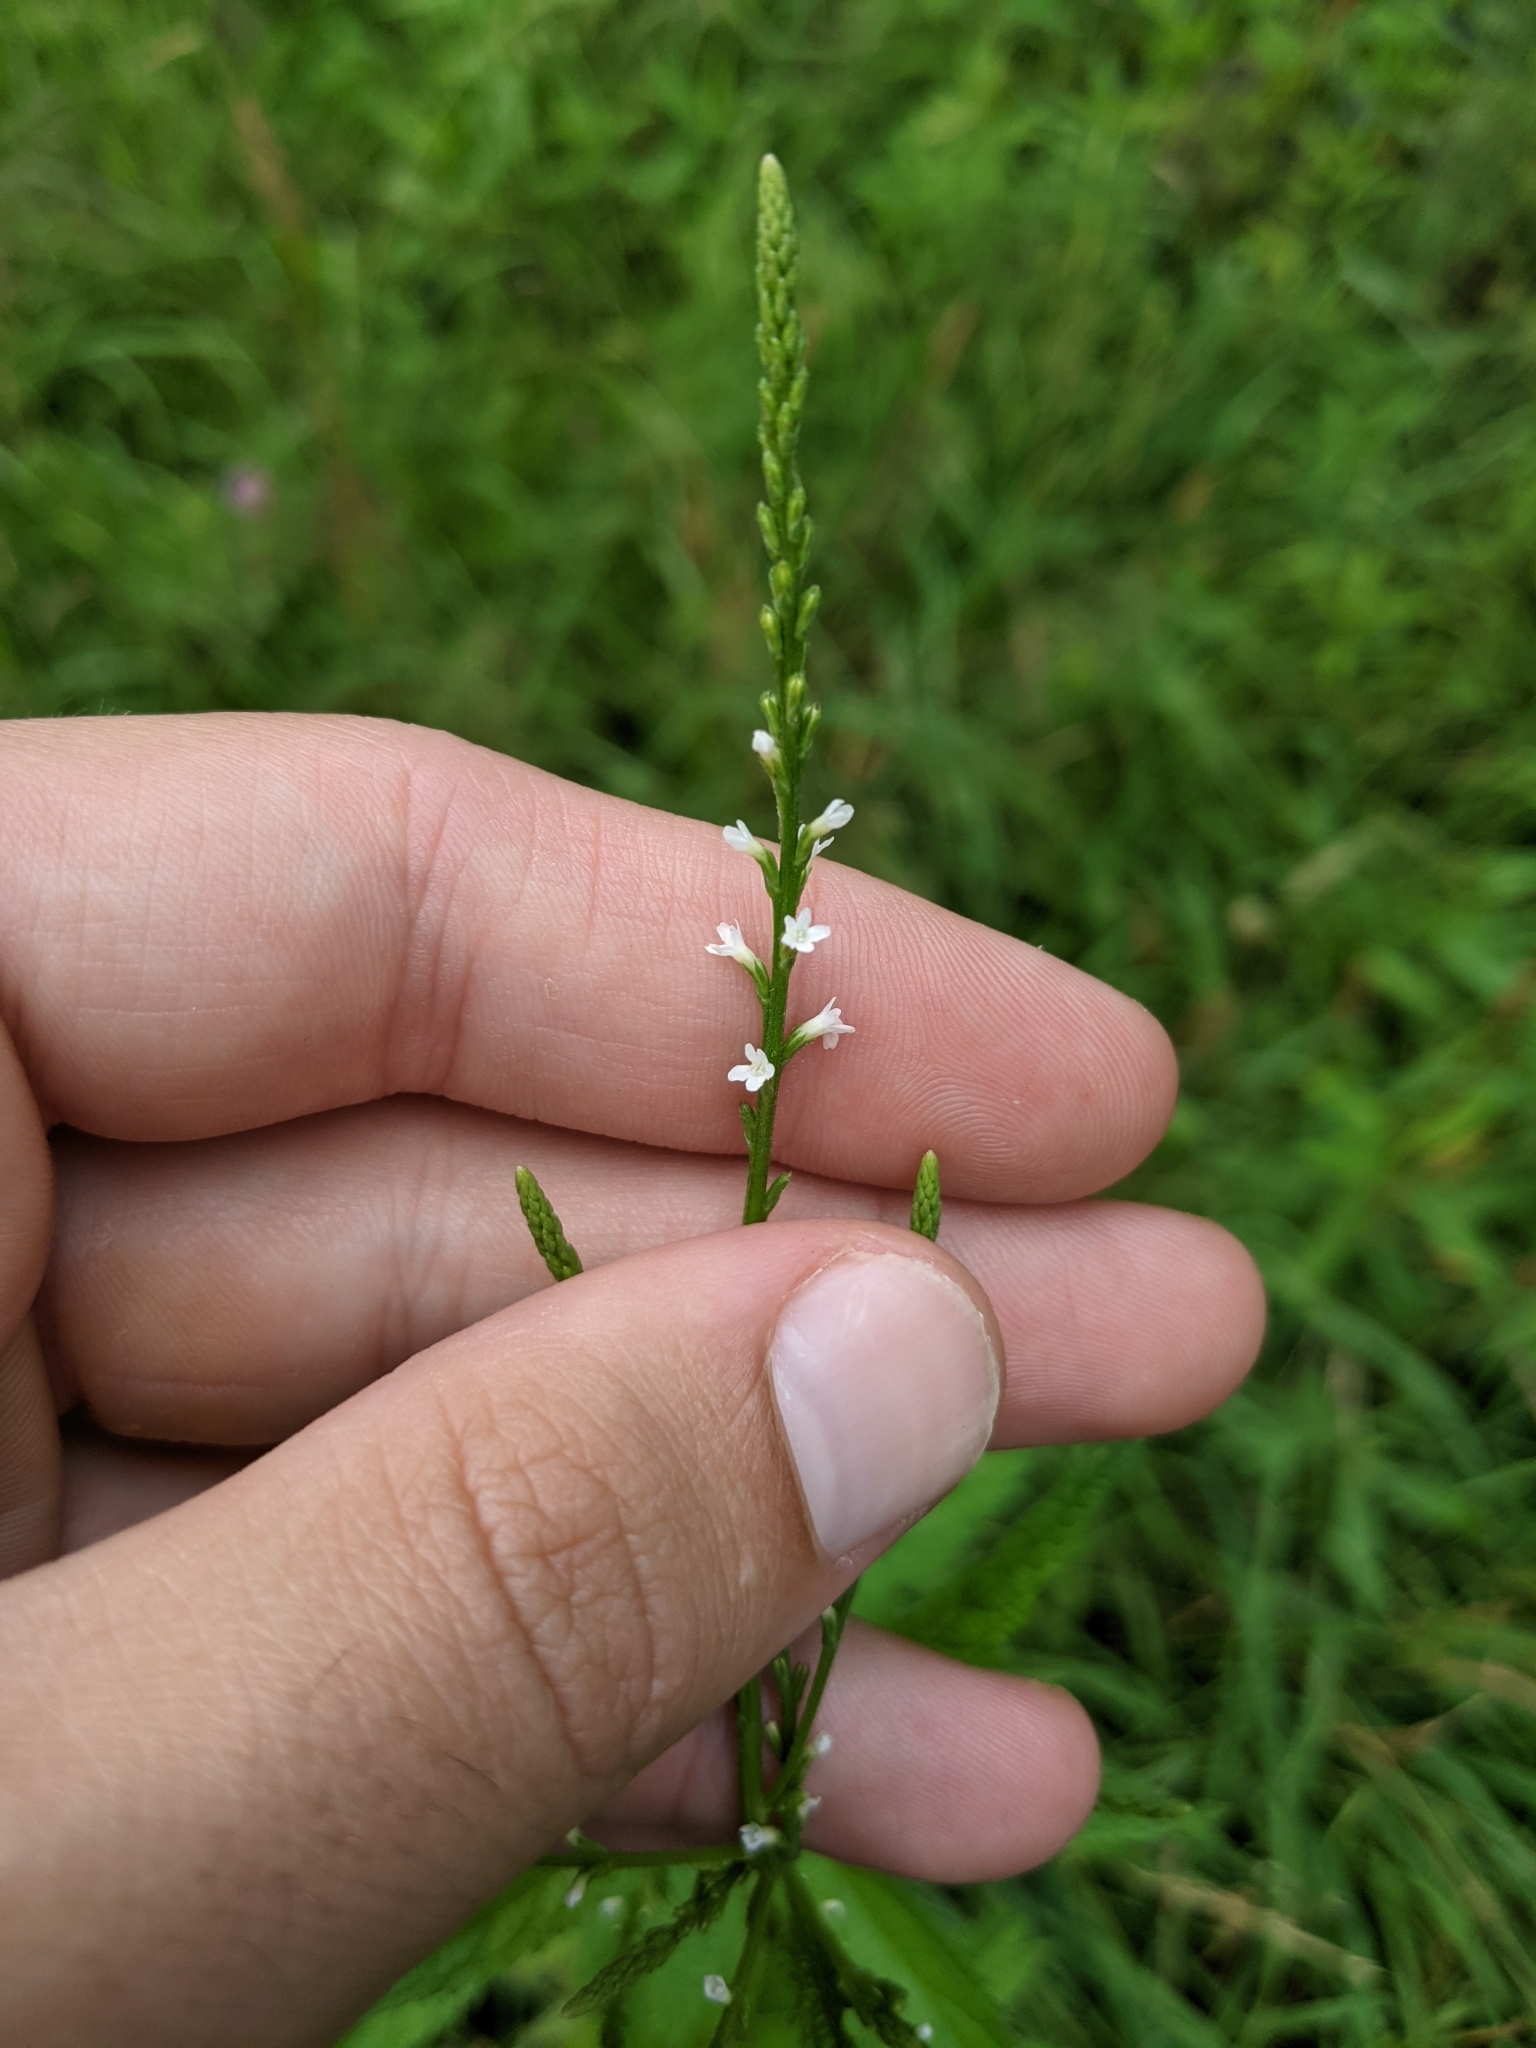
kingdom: Plantae
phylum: Tracheophyta
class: Magnoliopsida
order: Lamiales
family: Verbenaceae
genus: Verbena
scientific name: Verbena urticifolia
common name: Nettle-leaved vervain
